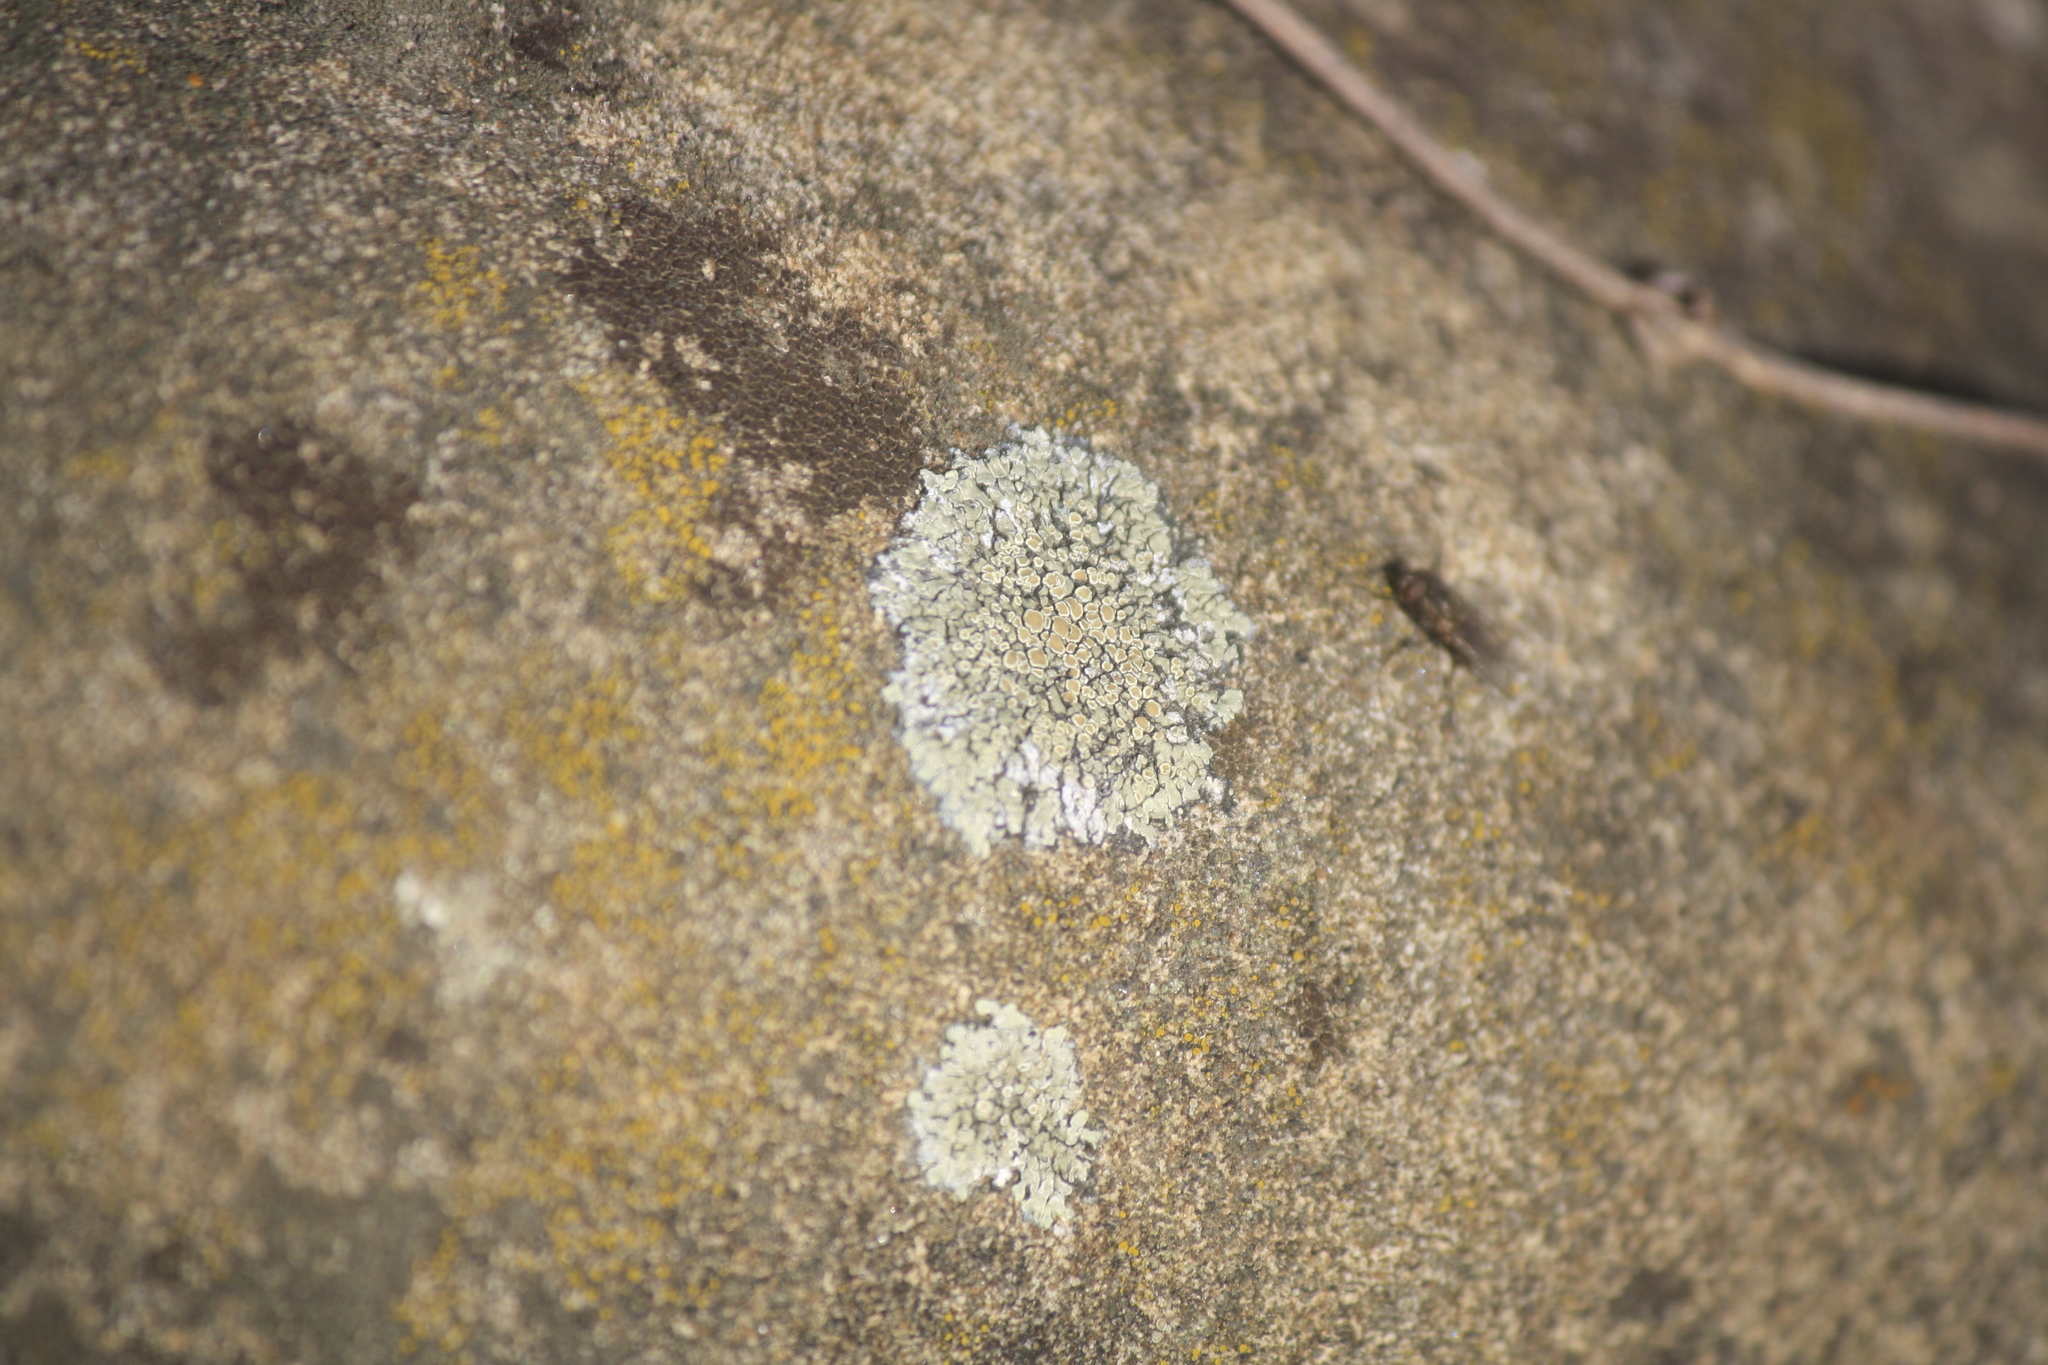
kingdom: Fungi
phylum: Ascomycota
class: Lecanoromycetes
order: Lecanorales
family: Lecanoraceae
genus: Protoparmeliopsis
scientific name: Protoparmeliopsis muralis
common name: Stonewall rim lichen
